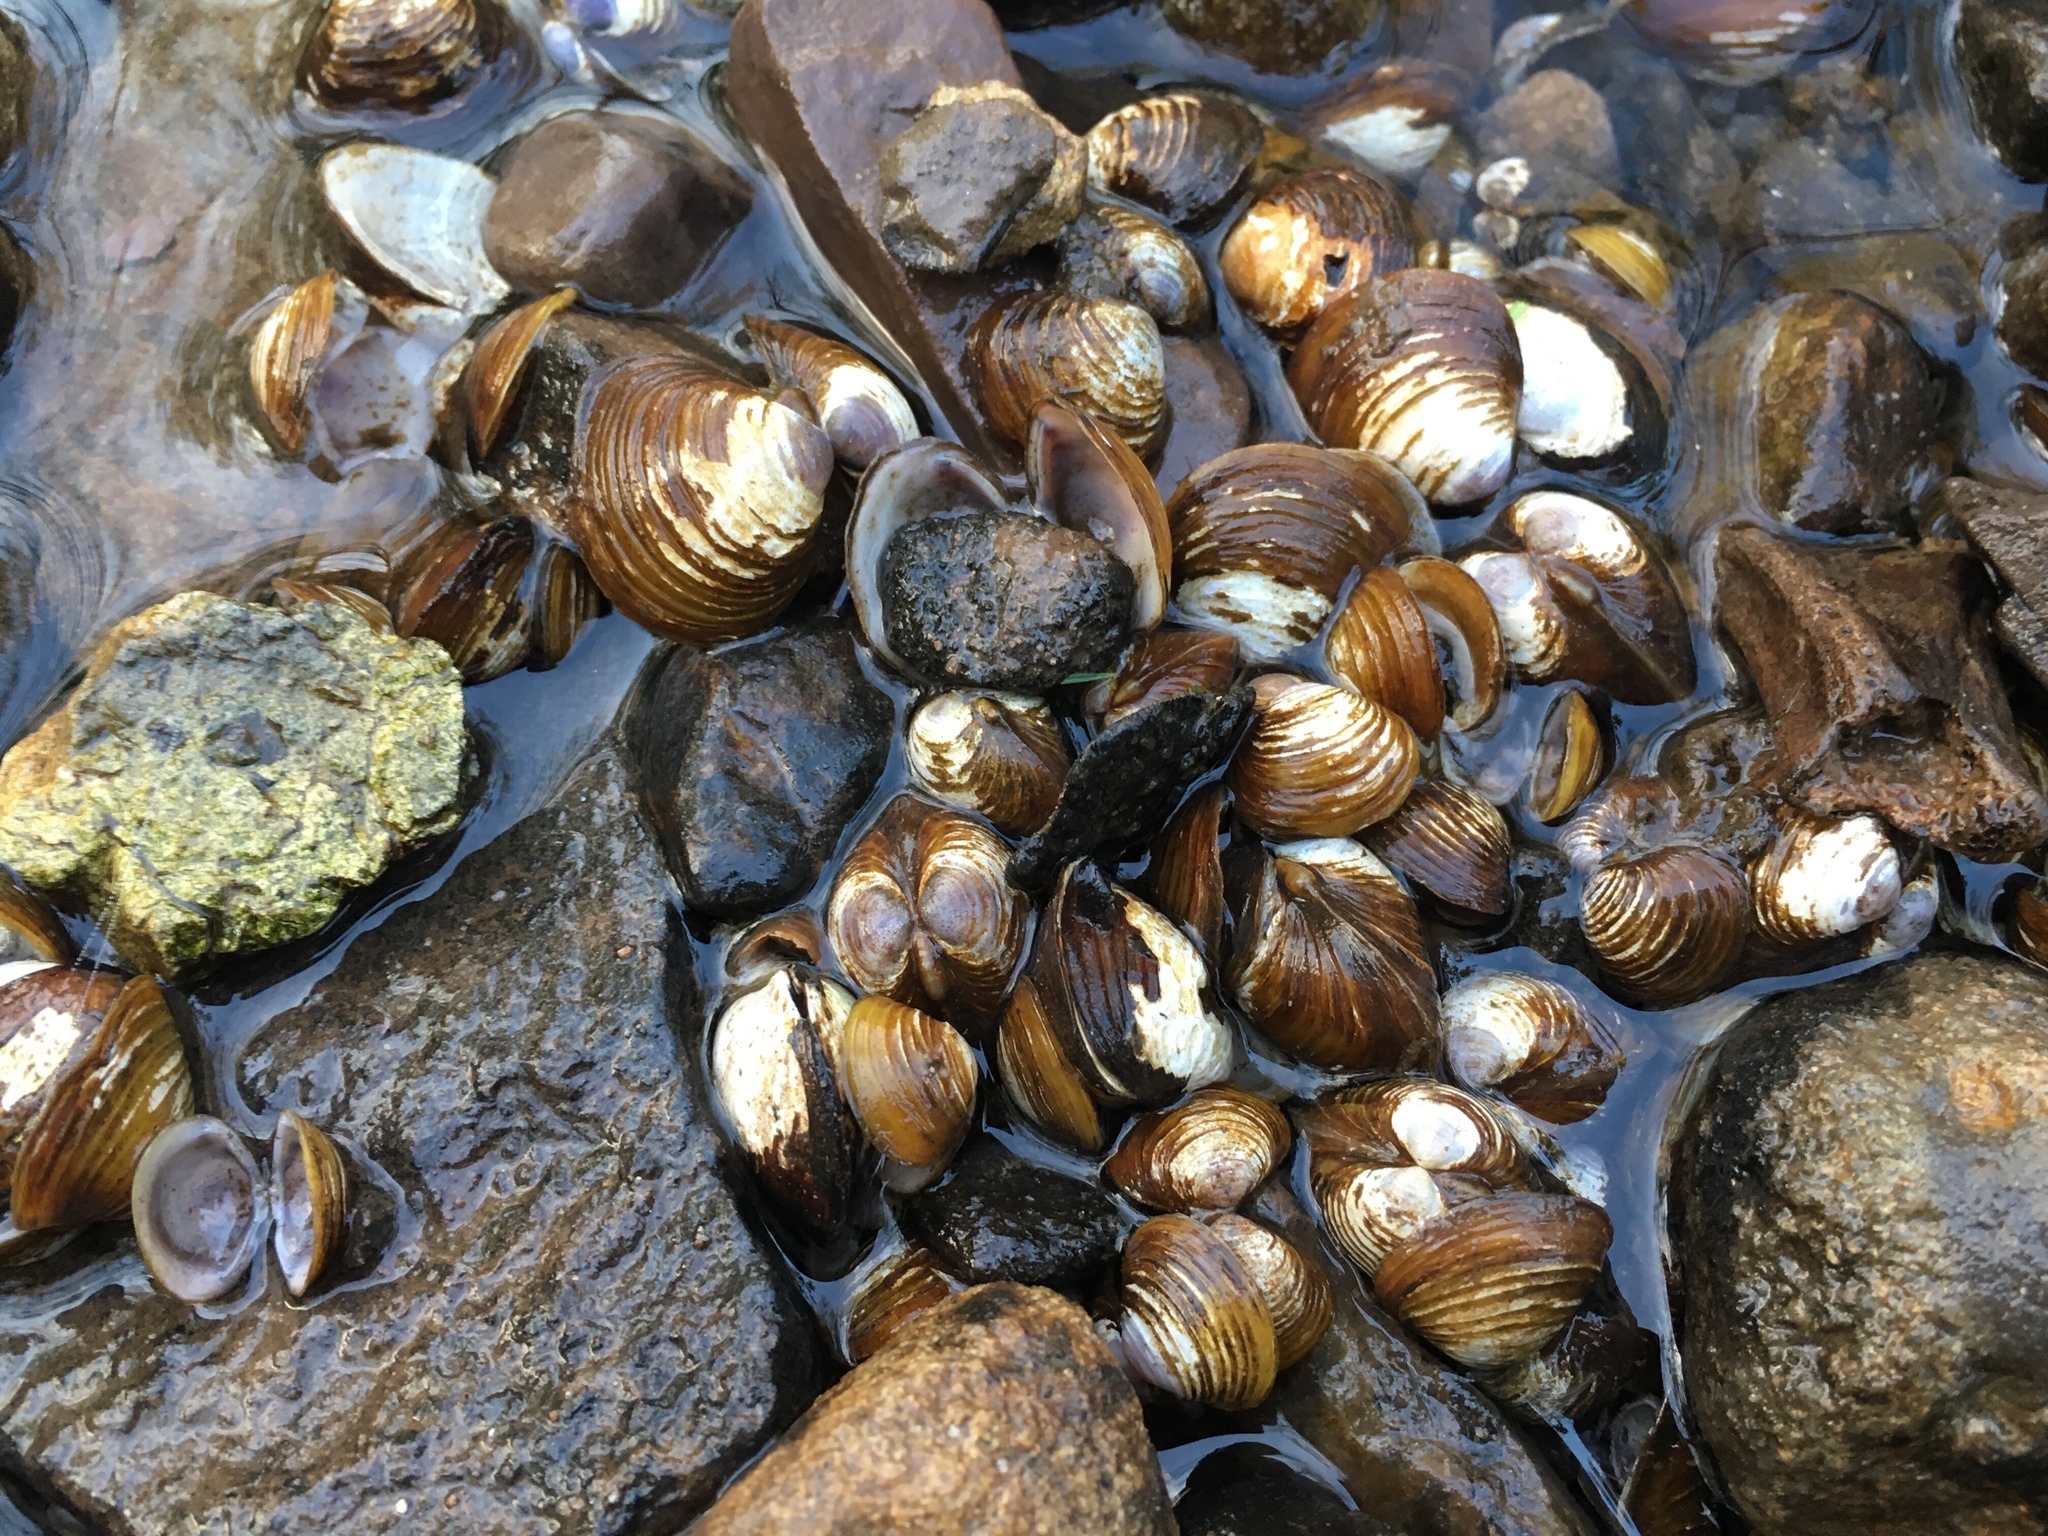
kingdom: Animalia
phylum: Mollusca
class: Bivalvia
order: Venerida
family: Cyrenidae
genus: Corbicula
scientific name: Corbicula fluminea
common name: Asian clam
